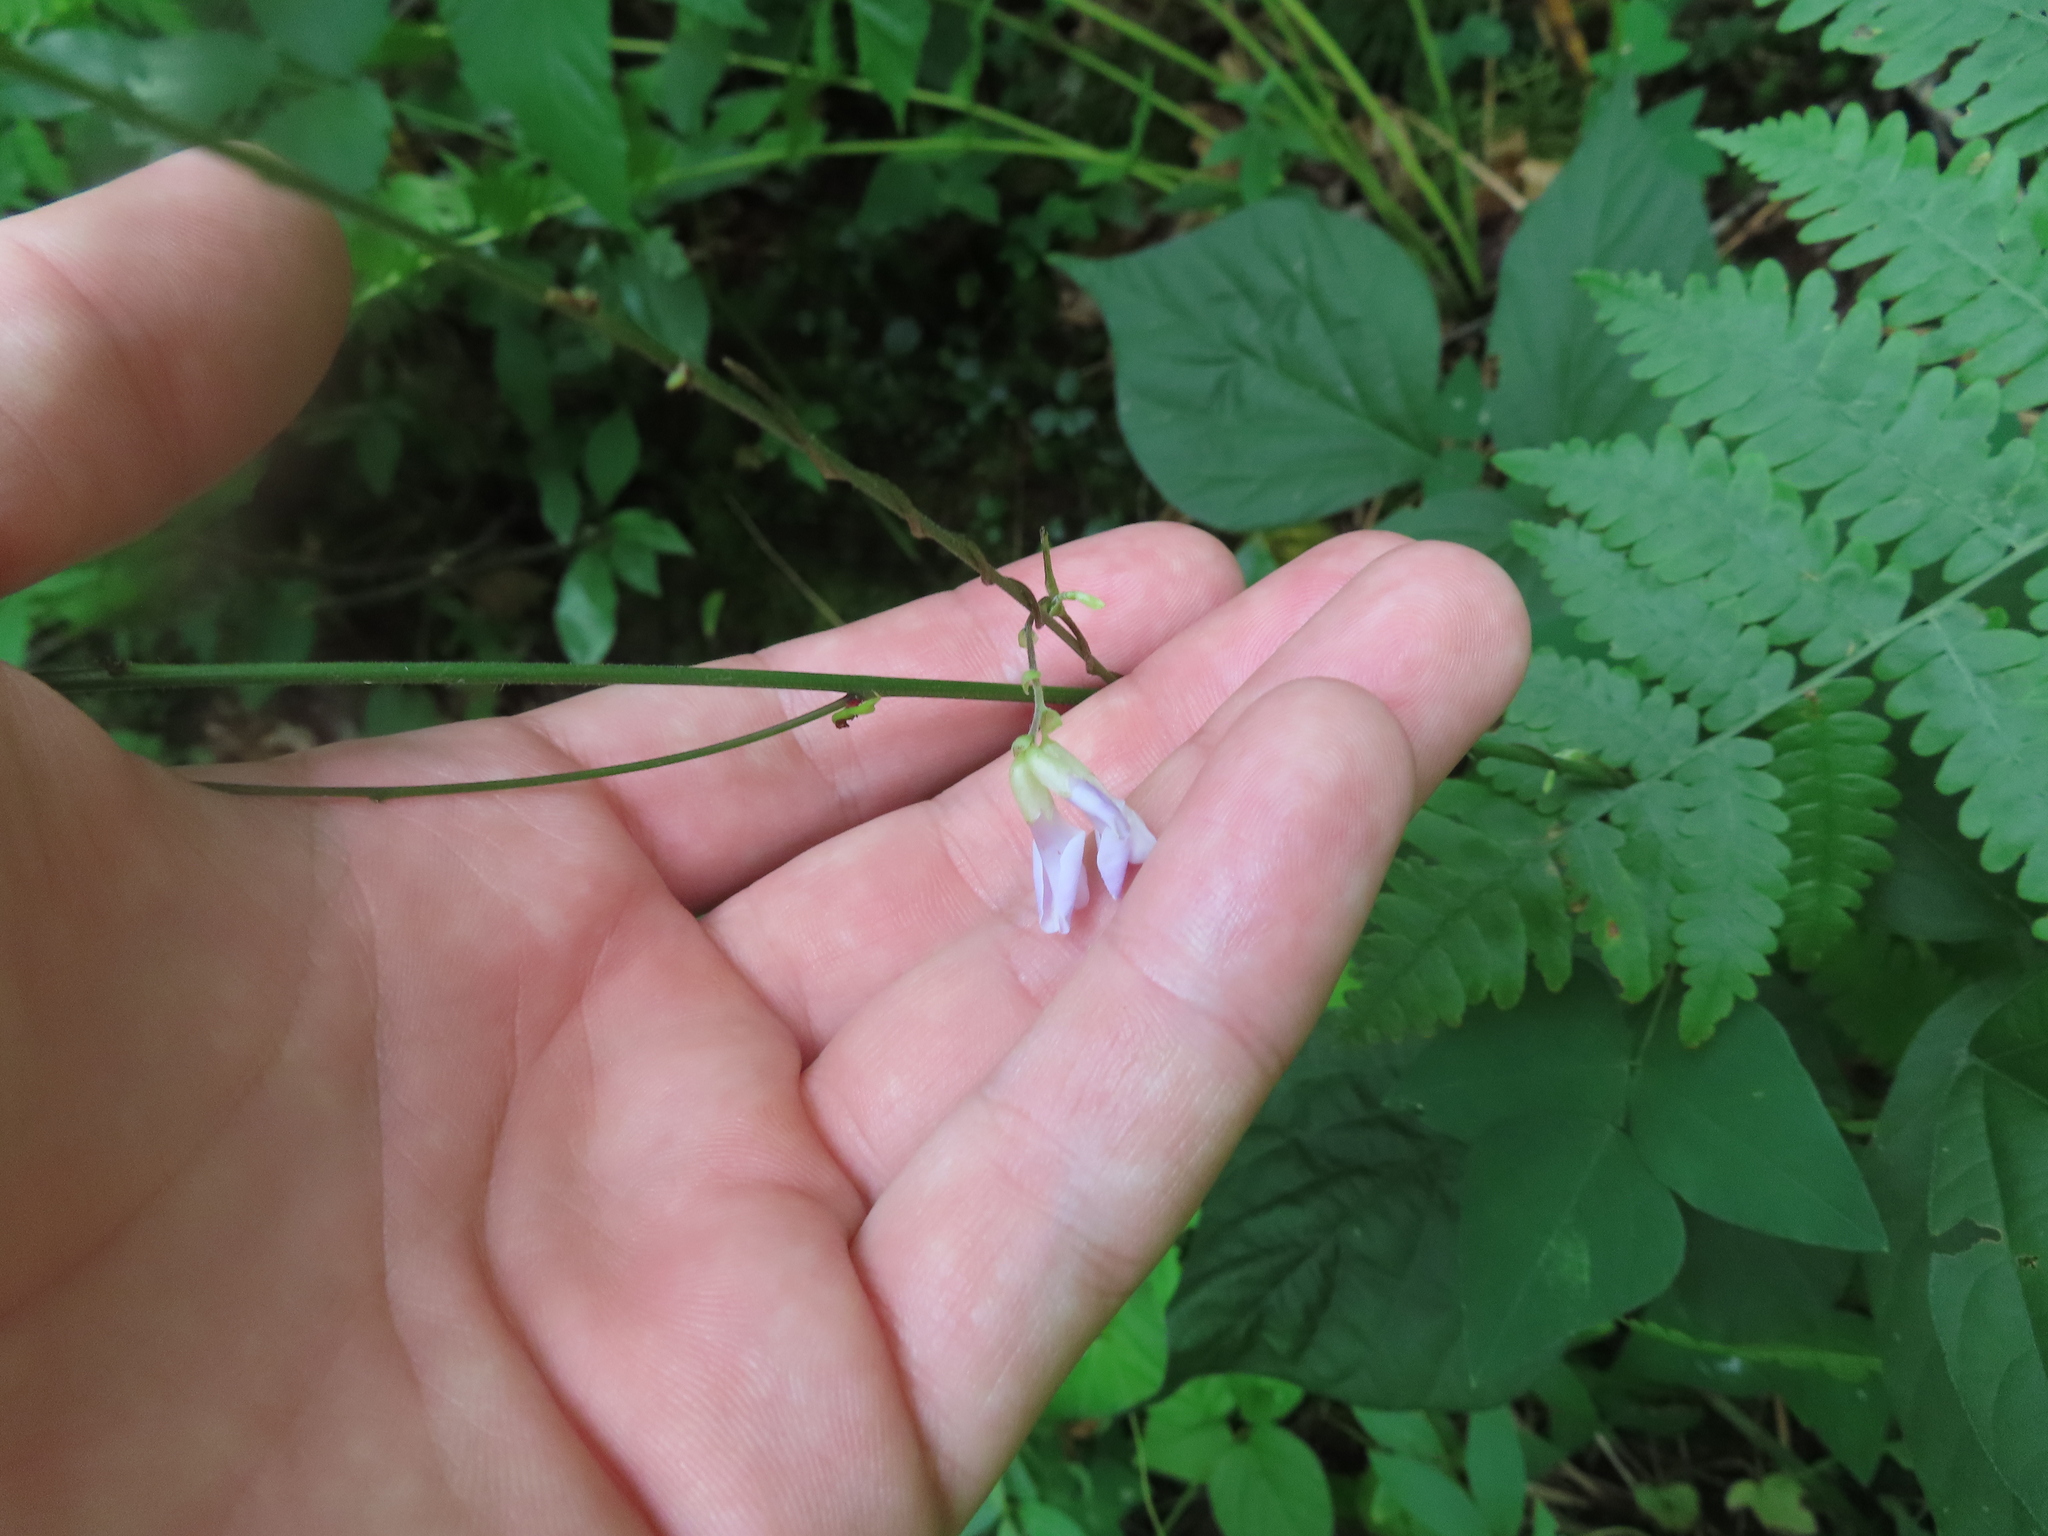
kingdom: Plantae
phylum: Tracheophyta
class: Magnoliopsida
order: Fabales
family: Fabaceae
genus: Amphicarpaea
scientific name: Amphicarpaea bracteata
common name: American hog peanut
